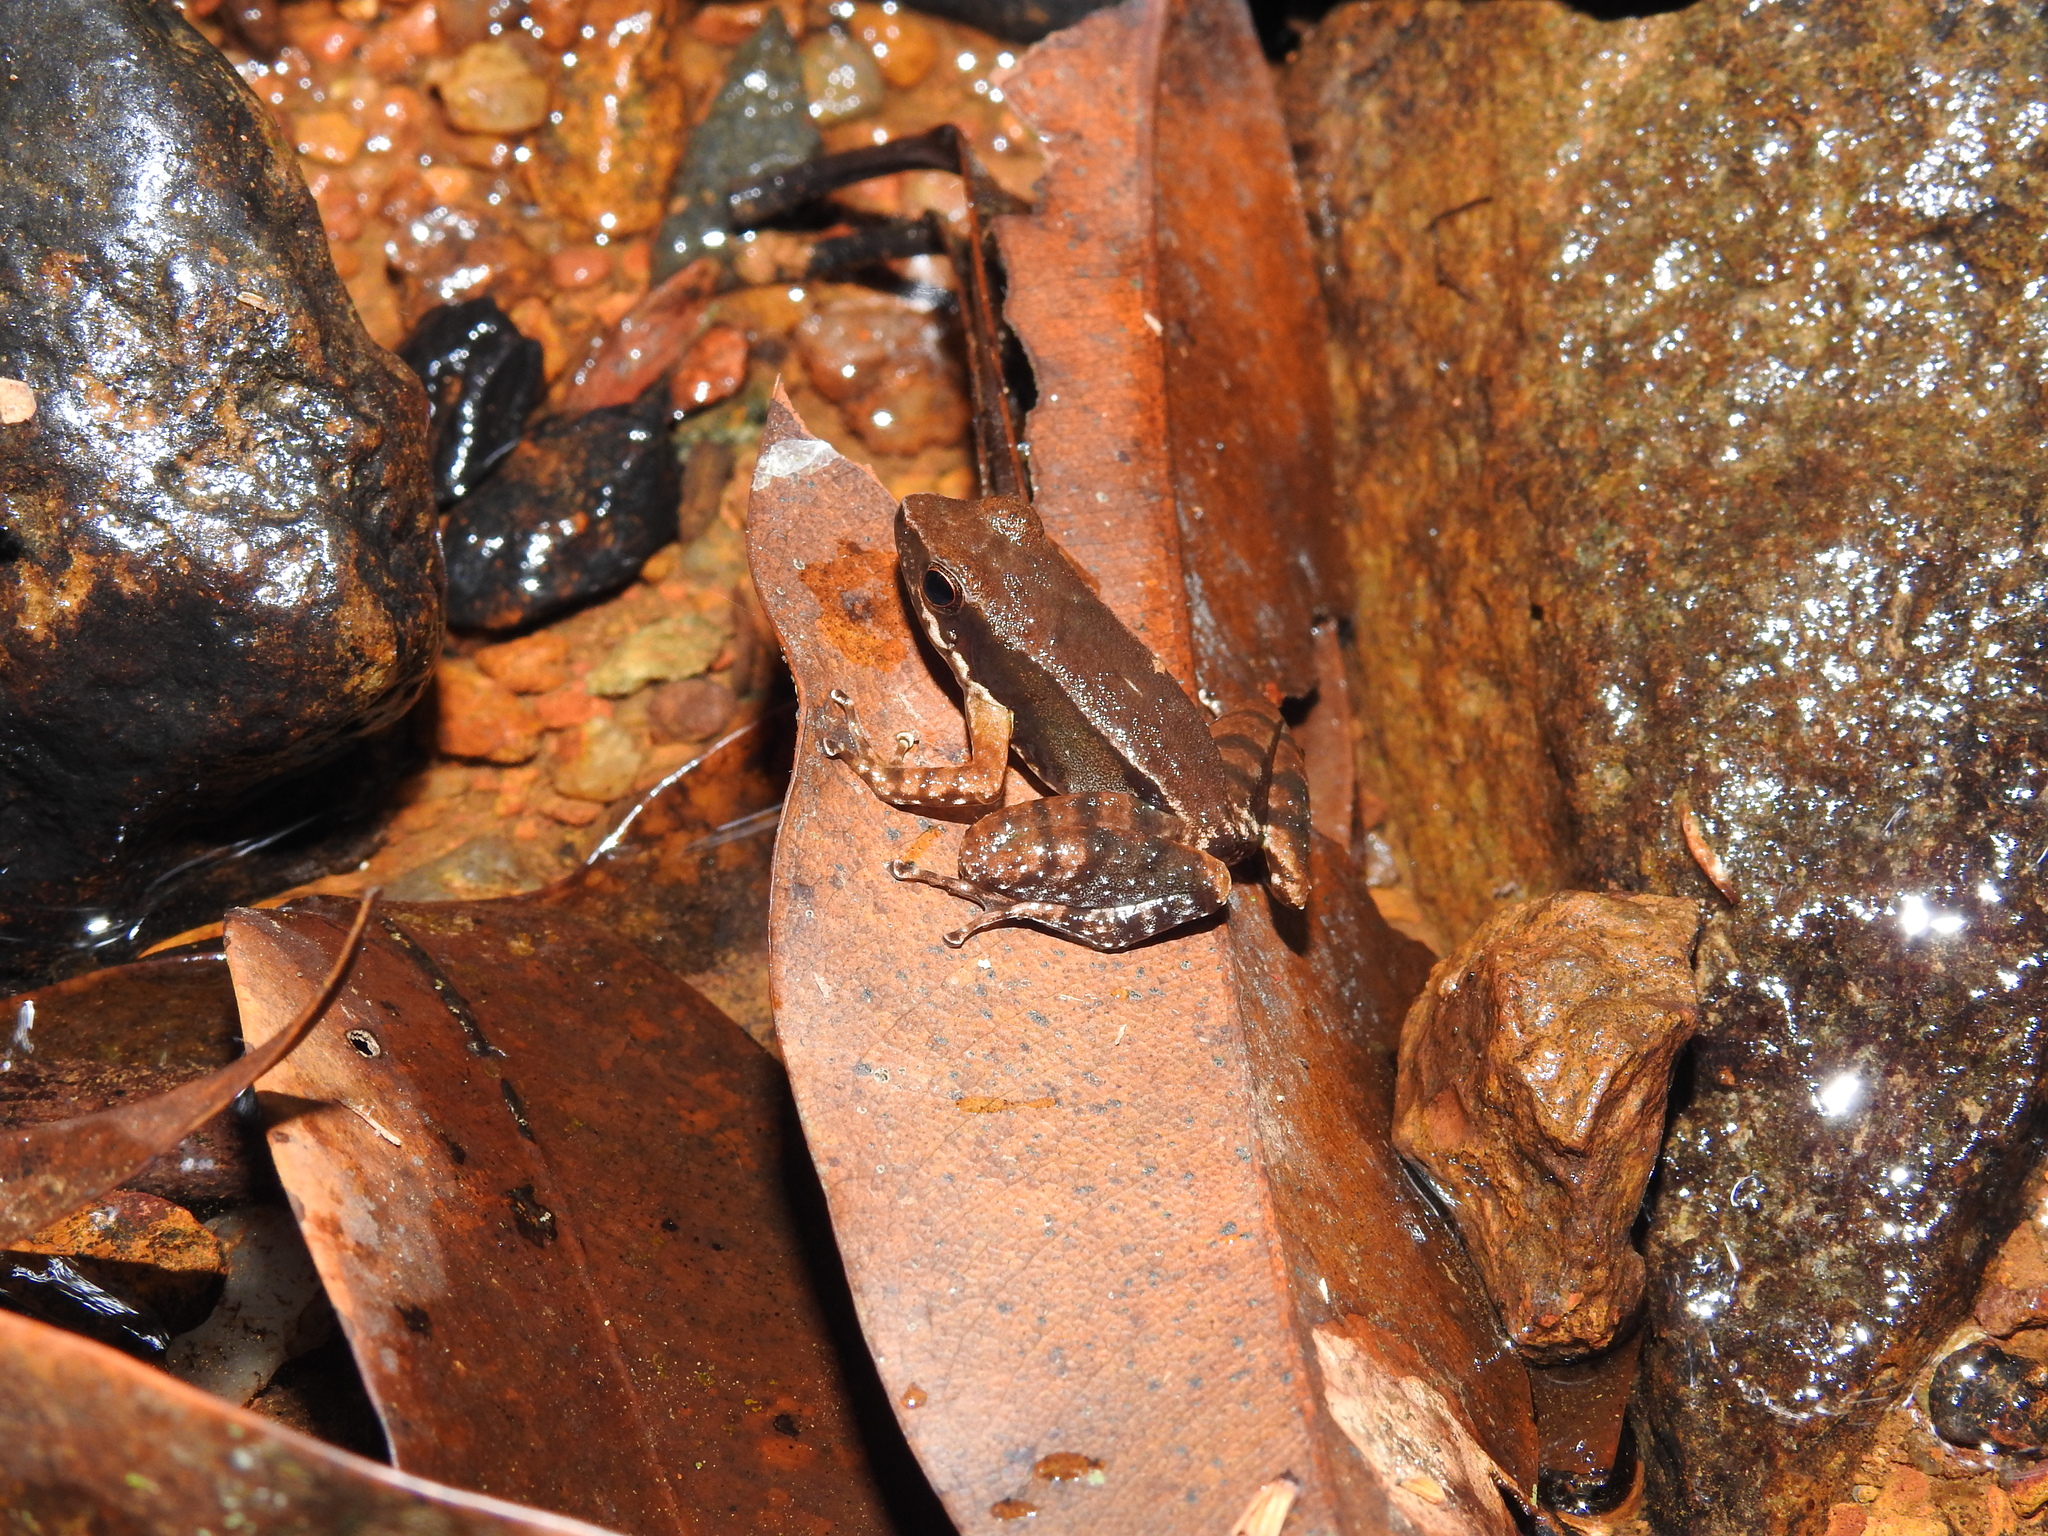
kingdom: Animalia
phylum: Chordata
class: Amphibia
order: Anura
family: Micrixalidae
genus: Micrixalus
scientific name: Micrixalus candidus
